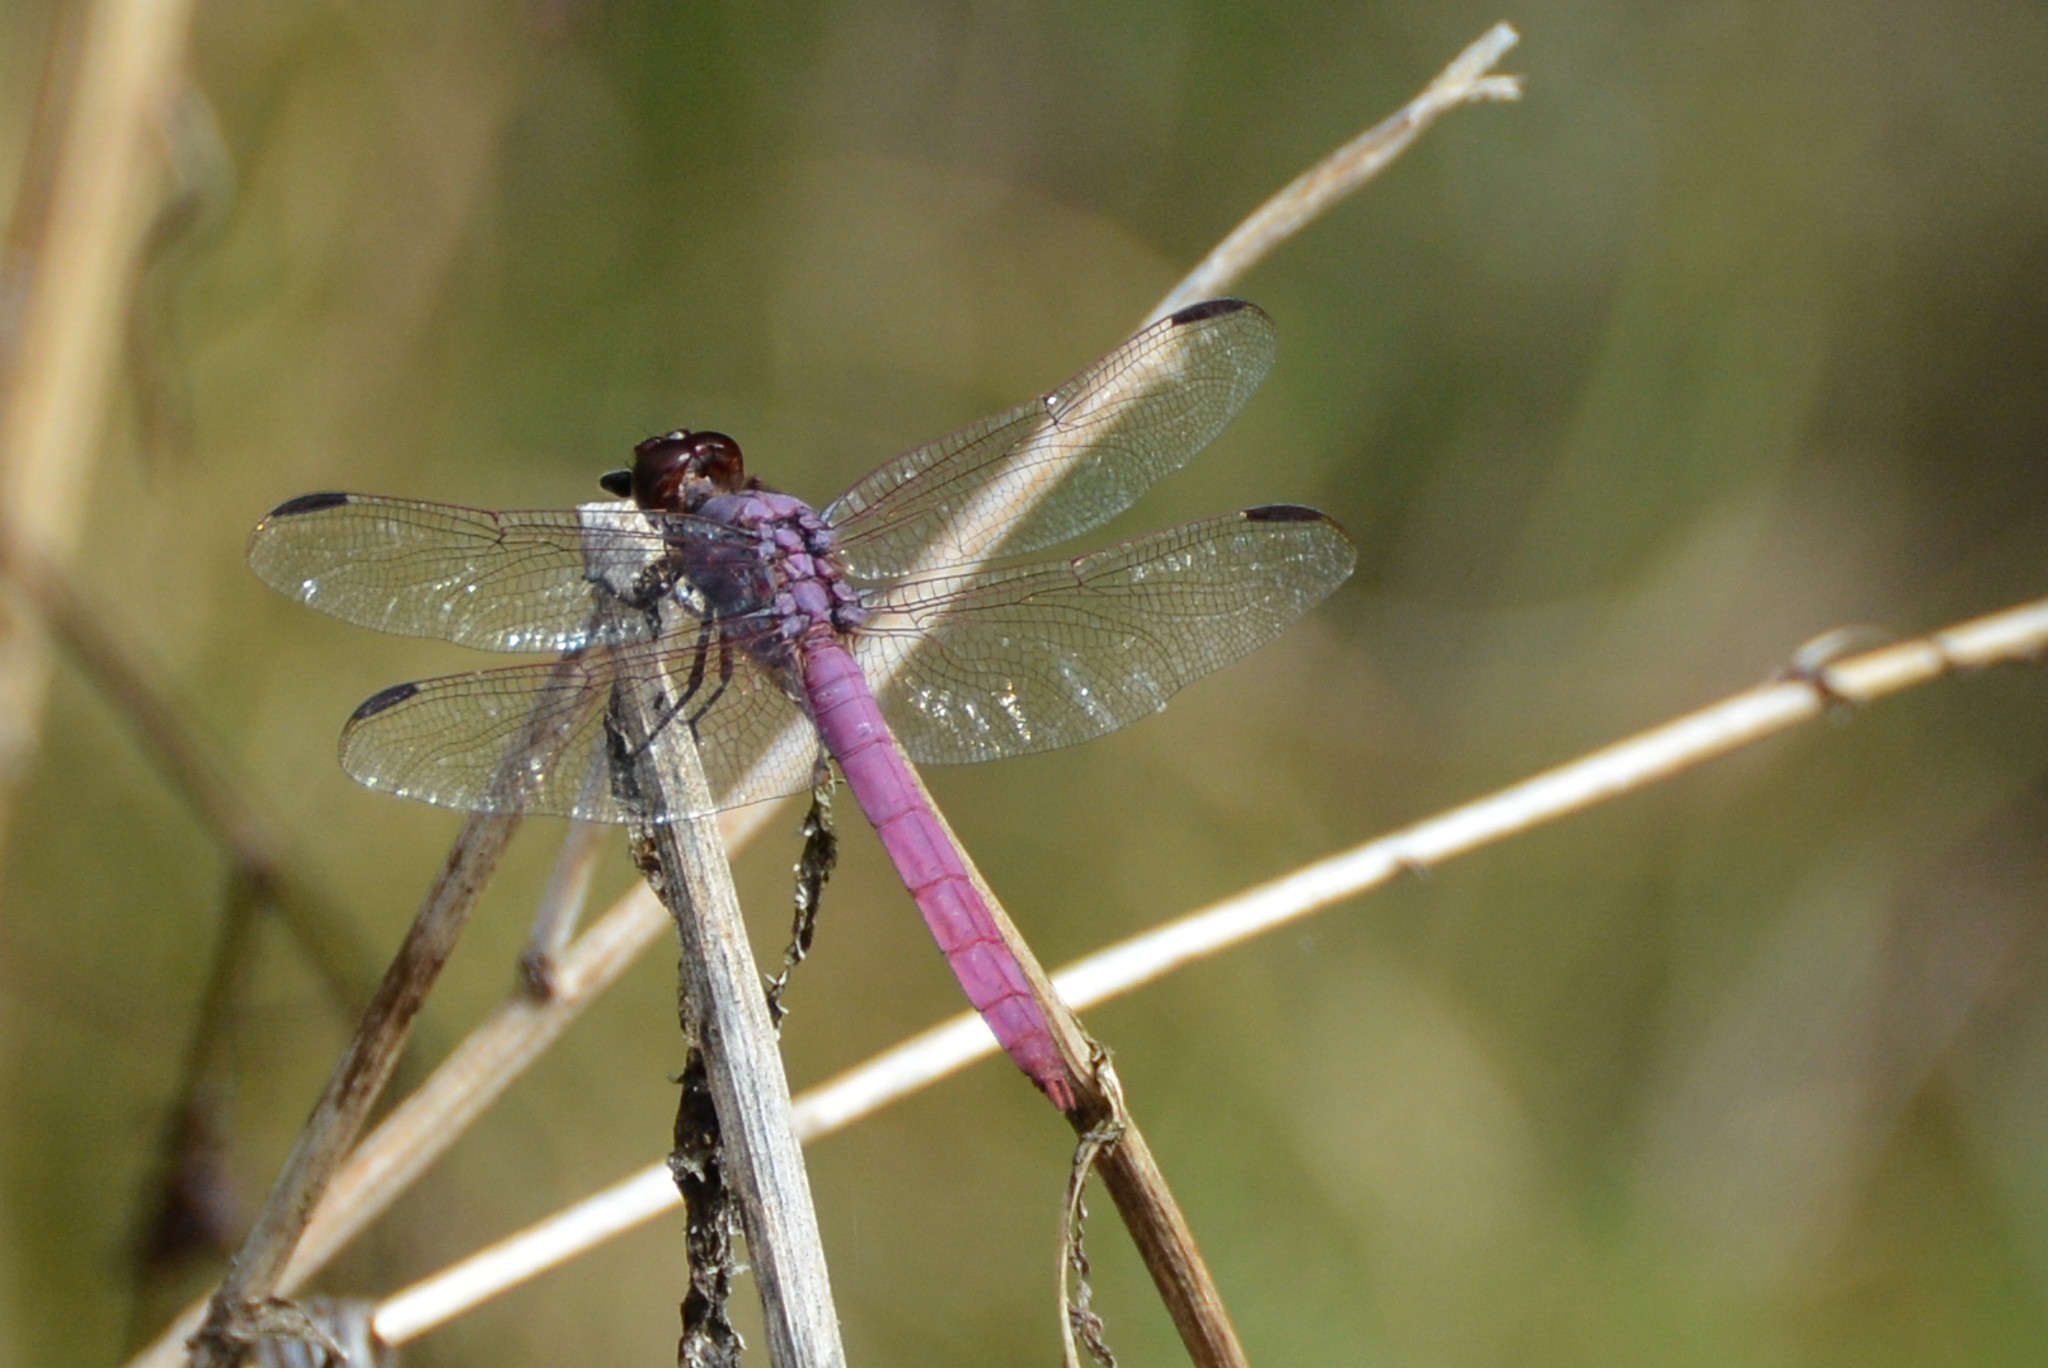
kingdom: Animalia
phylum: Arthropoda
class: Insecta
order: Odonata
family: Libellulidae
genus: Orthemis
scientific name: Orthemis ferruginea
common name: Roseate skimmer
